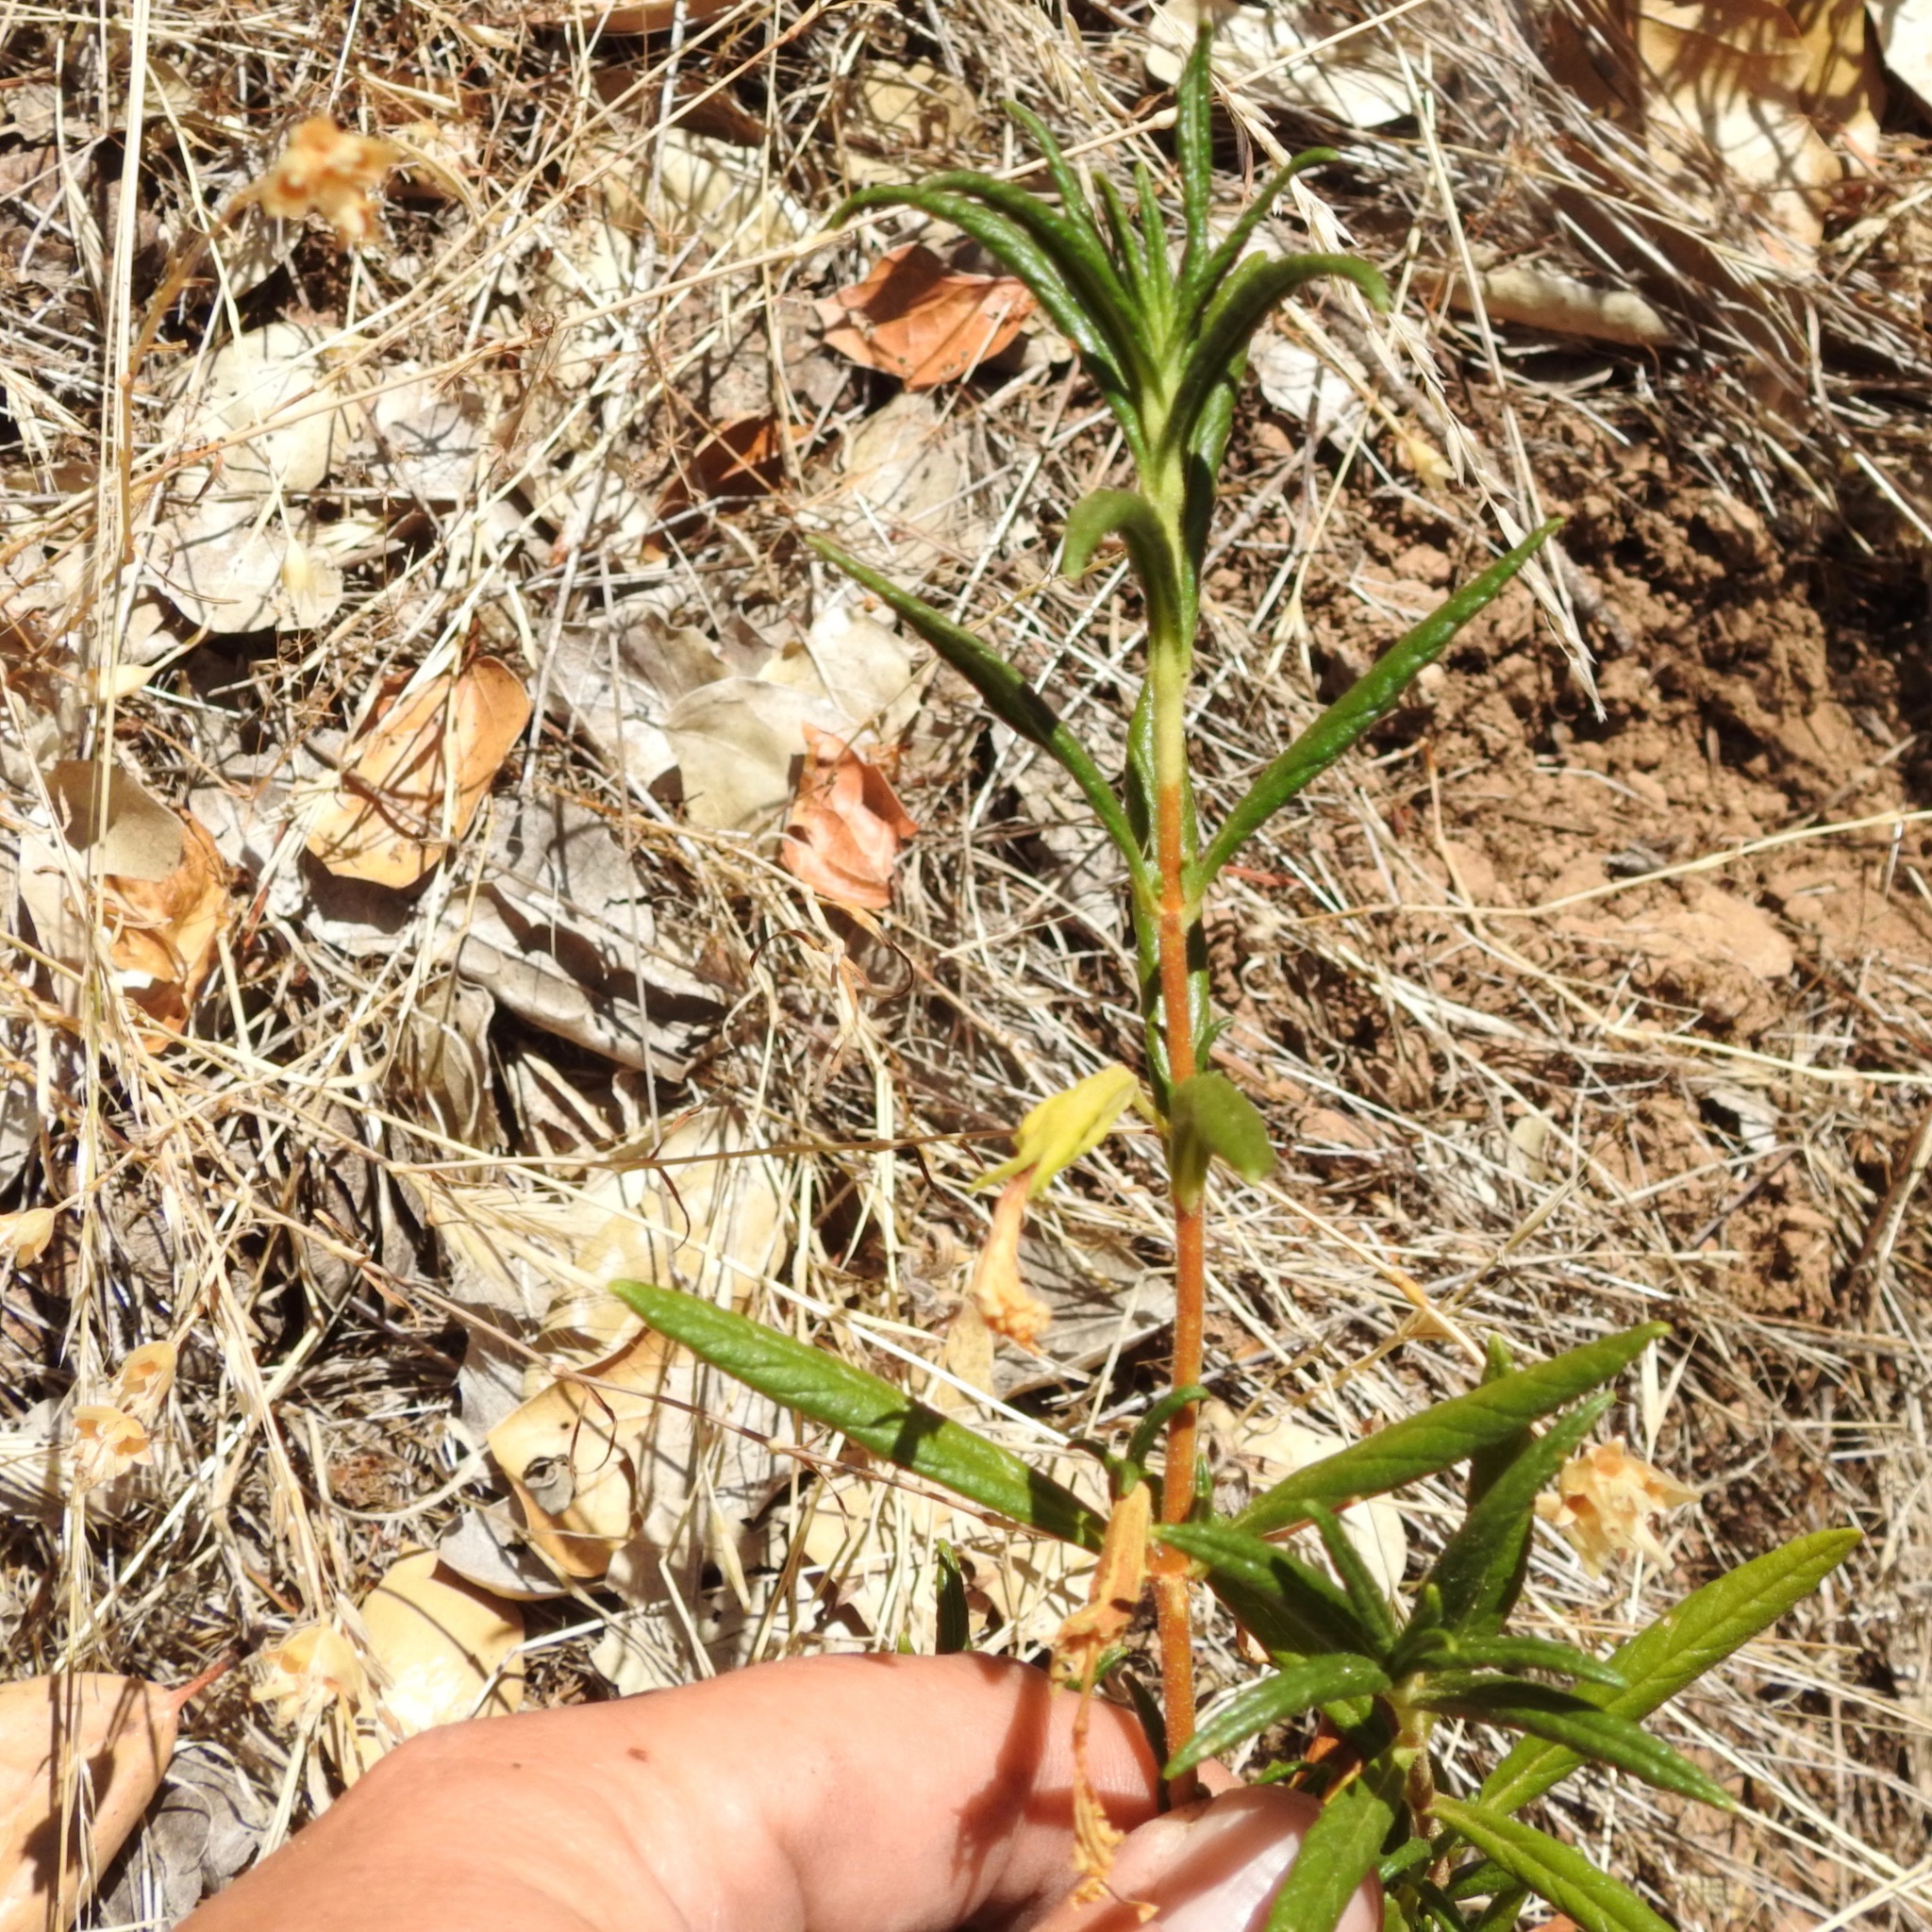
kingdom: Plantae
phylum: Tracheophyta
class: Magnoliopsida
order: Lamiales
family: Phrymaceae
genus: Diplacus
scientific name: Diplacus aurantiacus
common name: Bush monkey-flower
